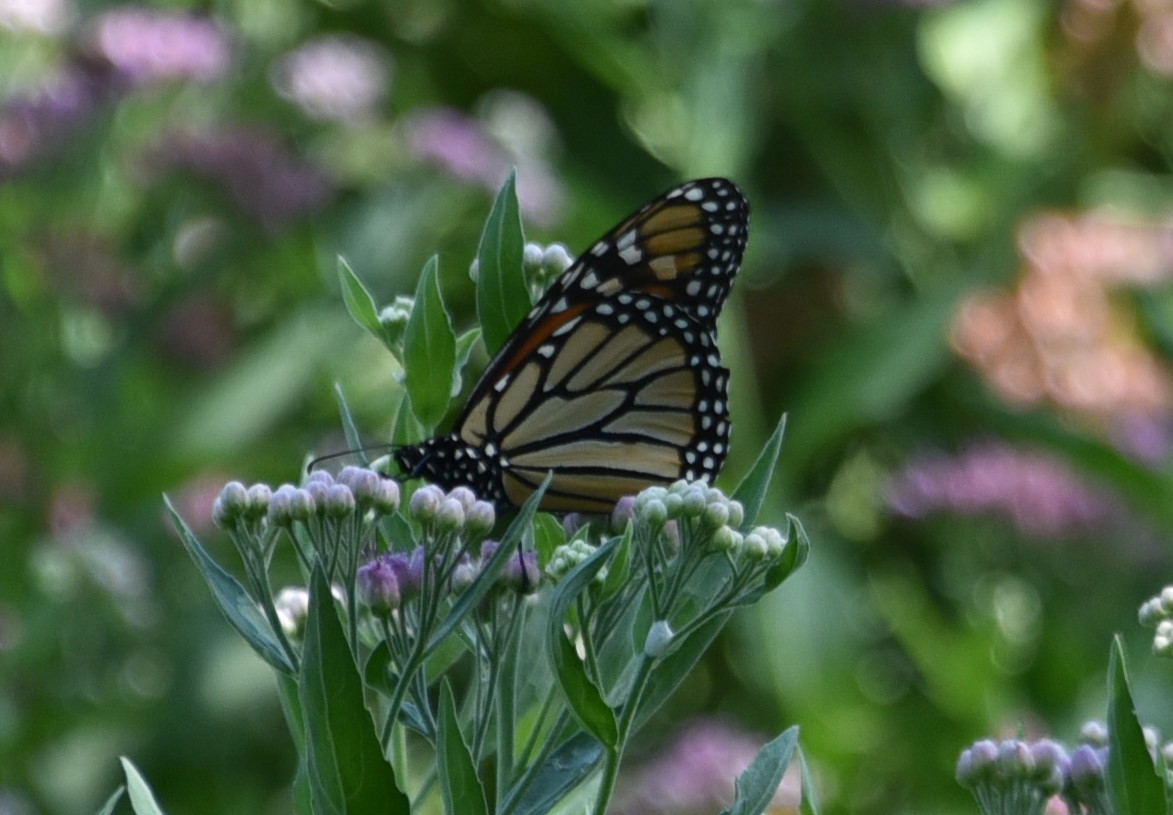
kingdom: Animalia
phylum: Arthropoda
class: Insecta
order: Lepidoptera
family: Nymphalidae
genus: Danaus
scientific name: Danaus plexippus
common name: Monarch
